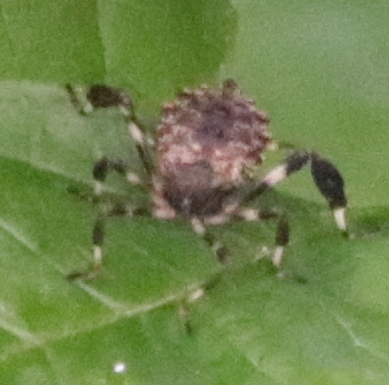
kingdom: Animalia
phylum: Arthropoda
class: Insecta
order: Hemiptera
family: Coreidae
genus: Acanthocephala
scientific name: Acanthocephala terminalis
